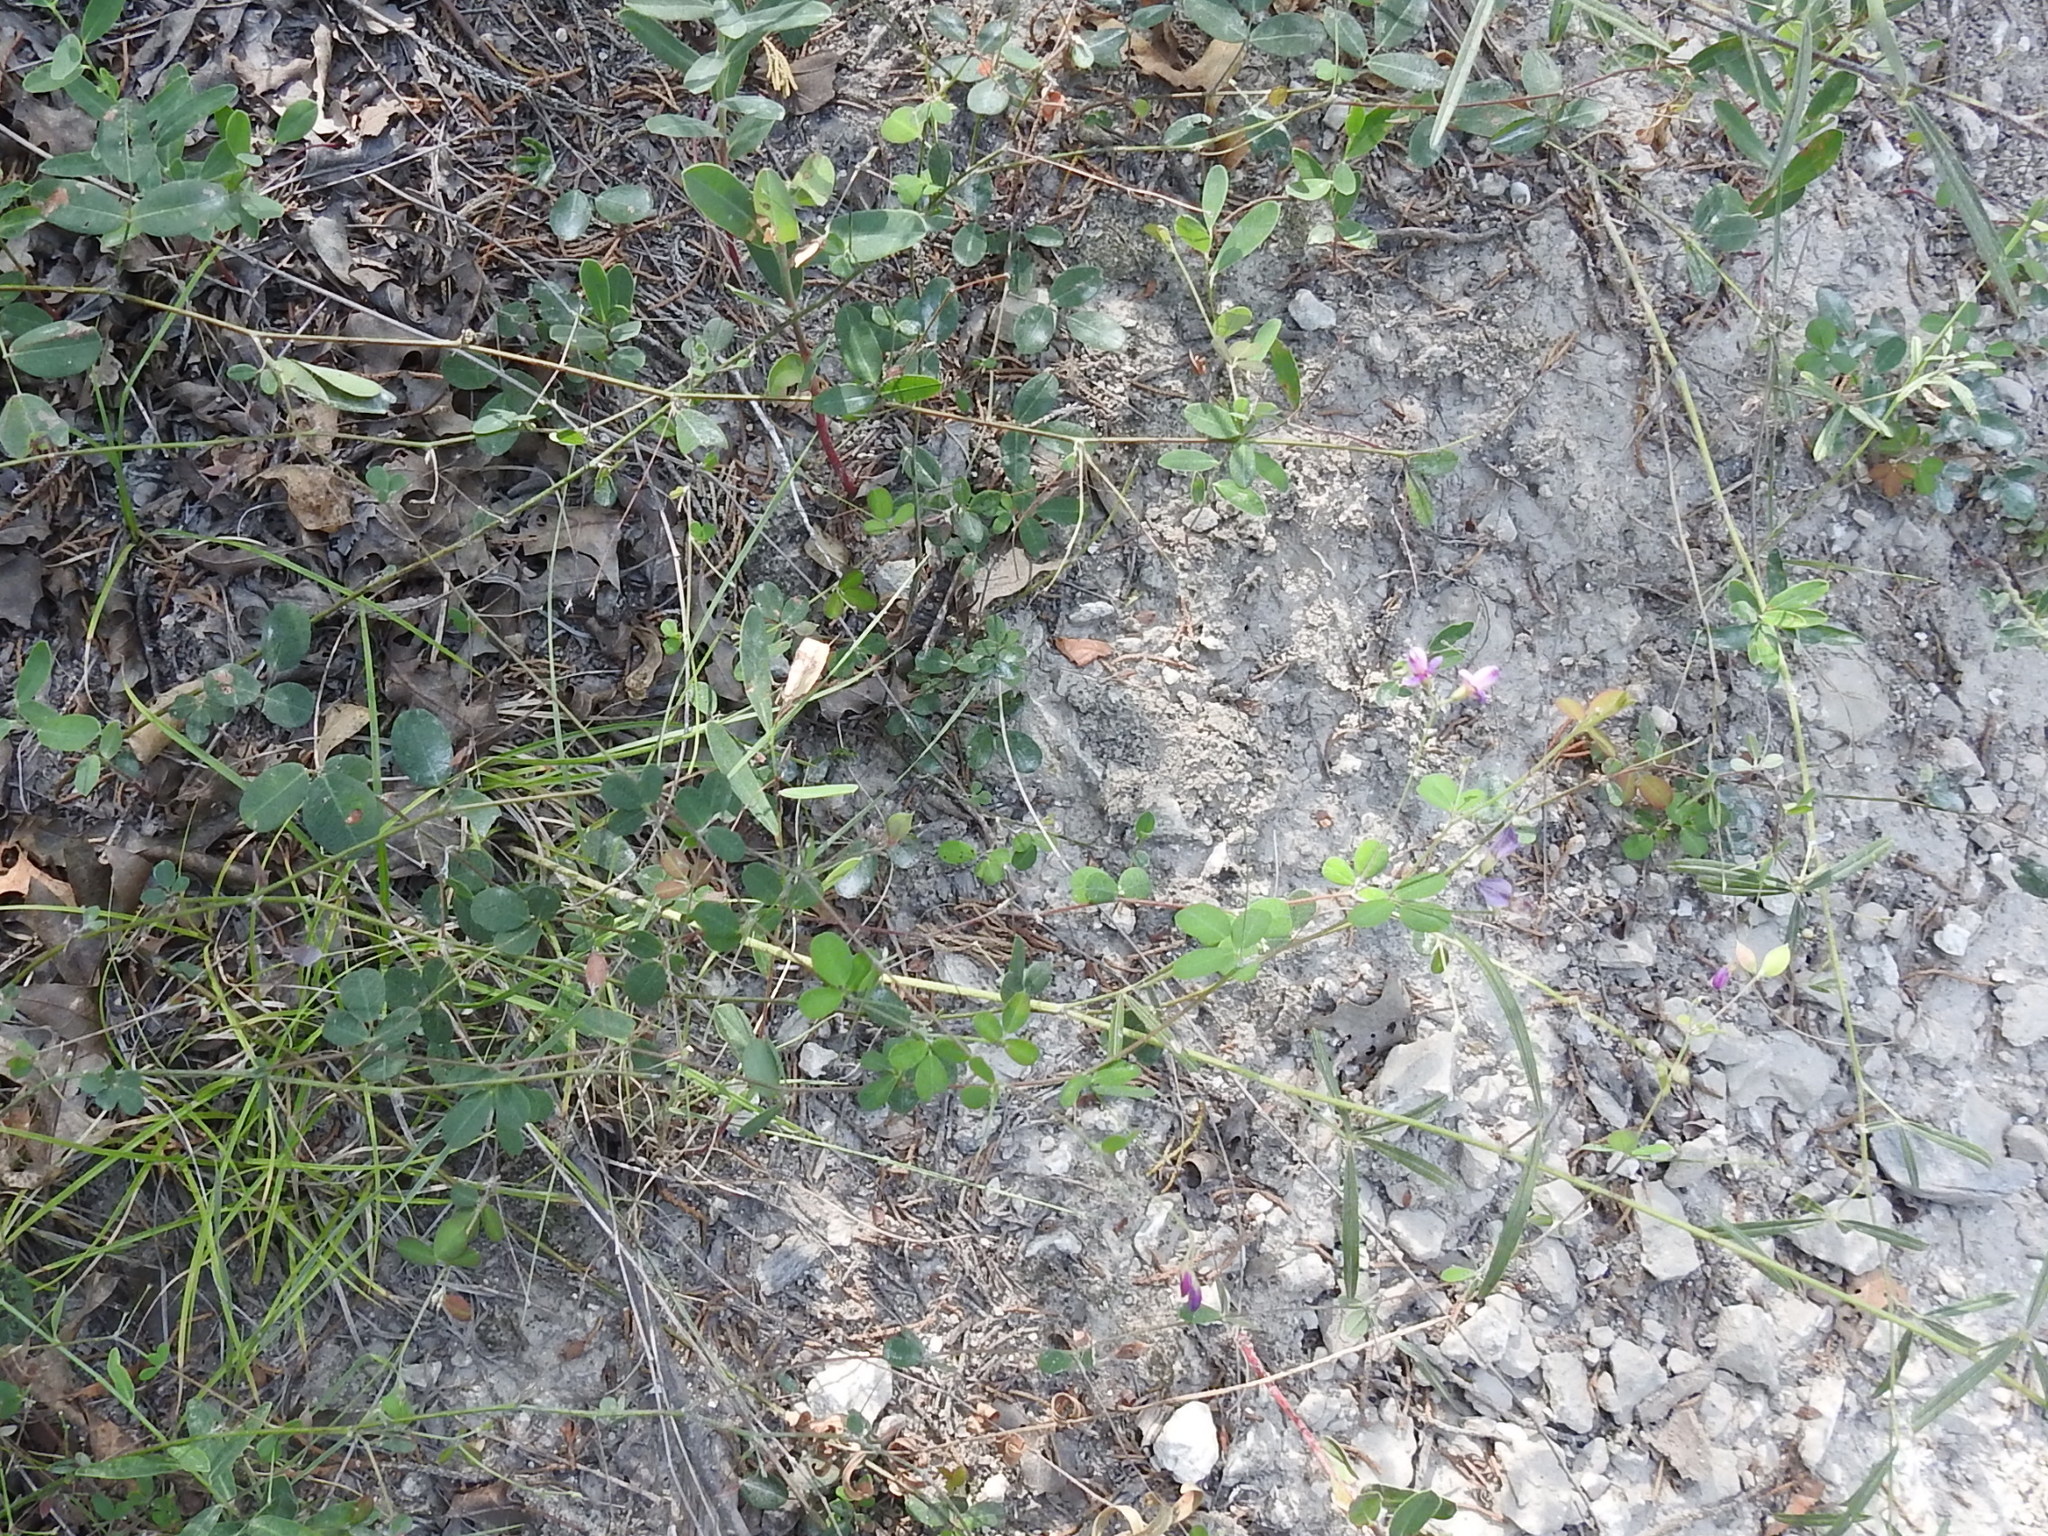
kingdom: Plantae
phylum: Tracheophyta
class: Magnoliopsida
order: Fabales
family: Fabaceae
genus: Lespedeza
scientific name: Lespedeza texana
